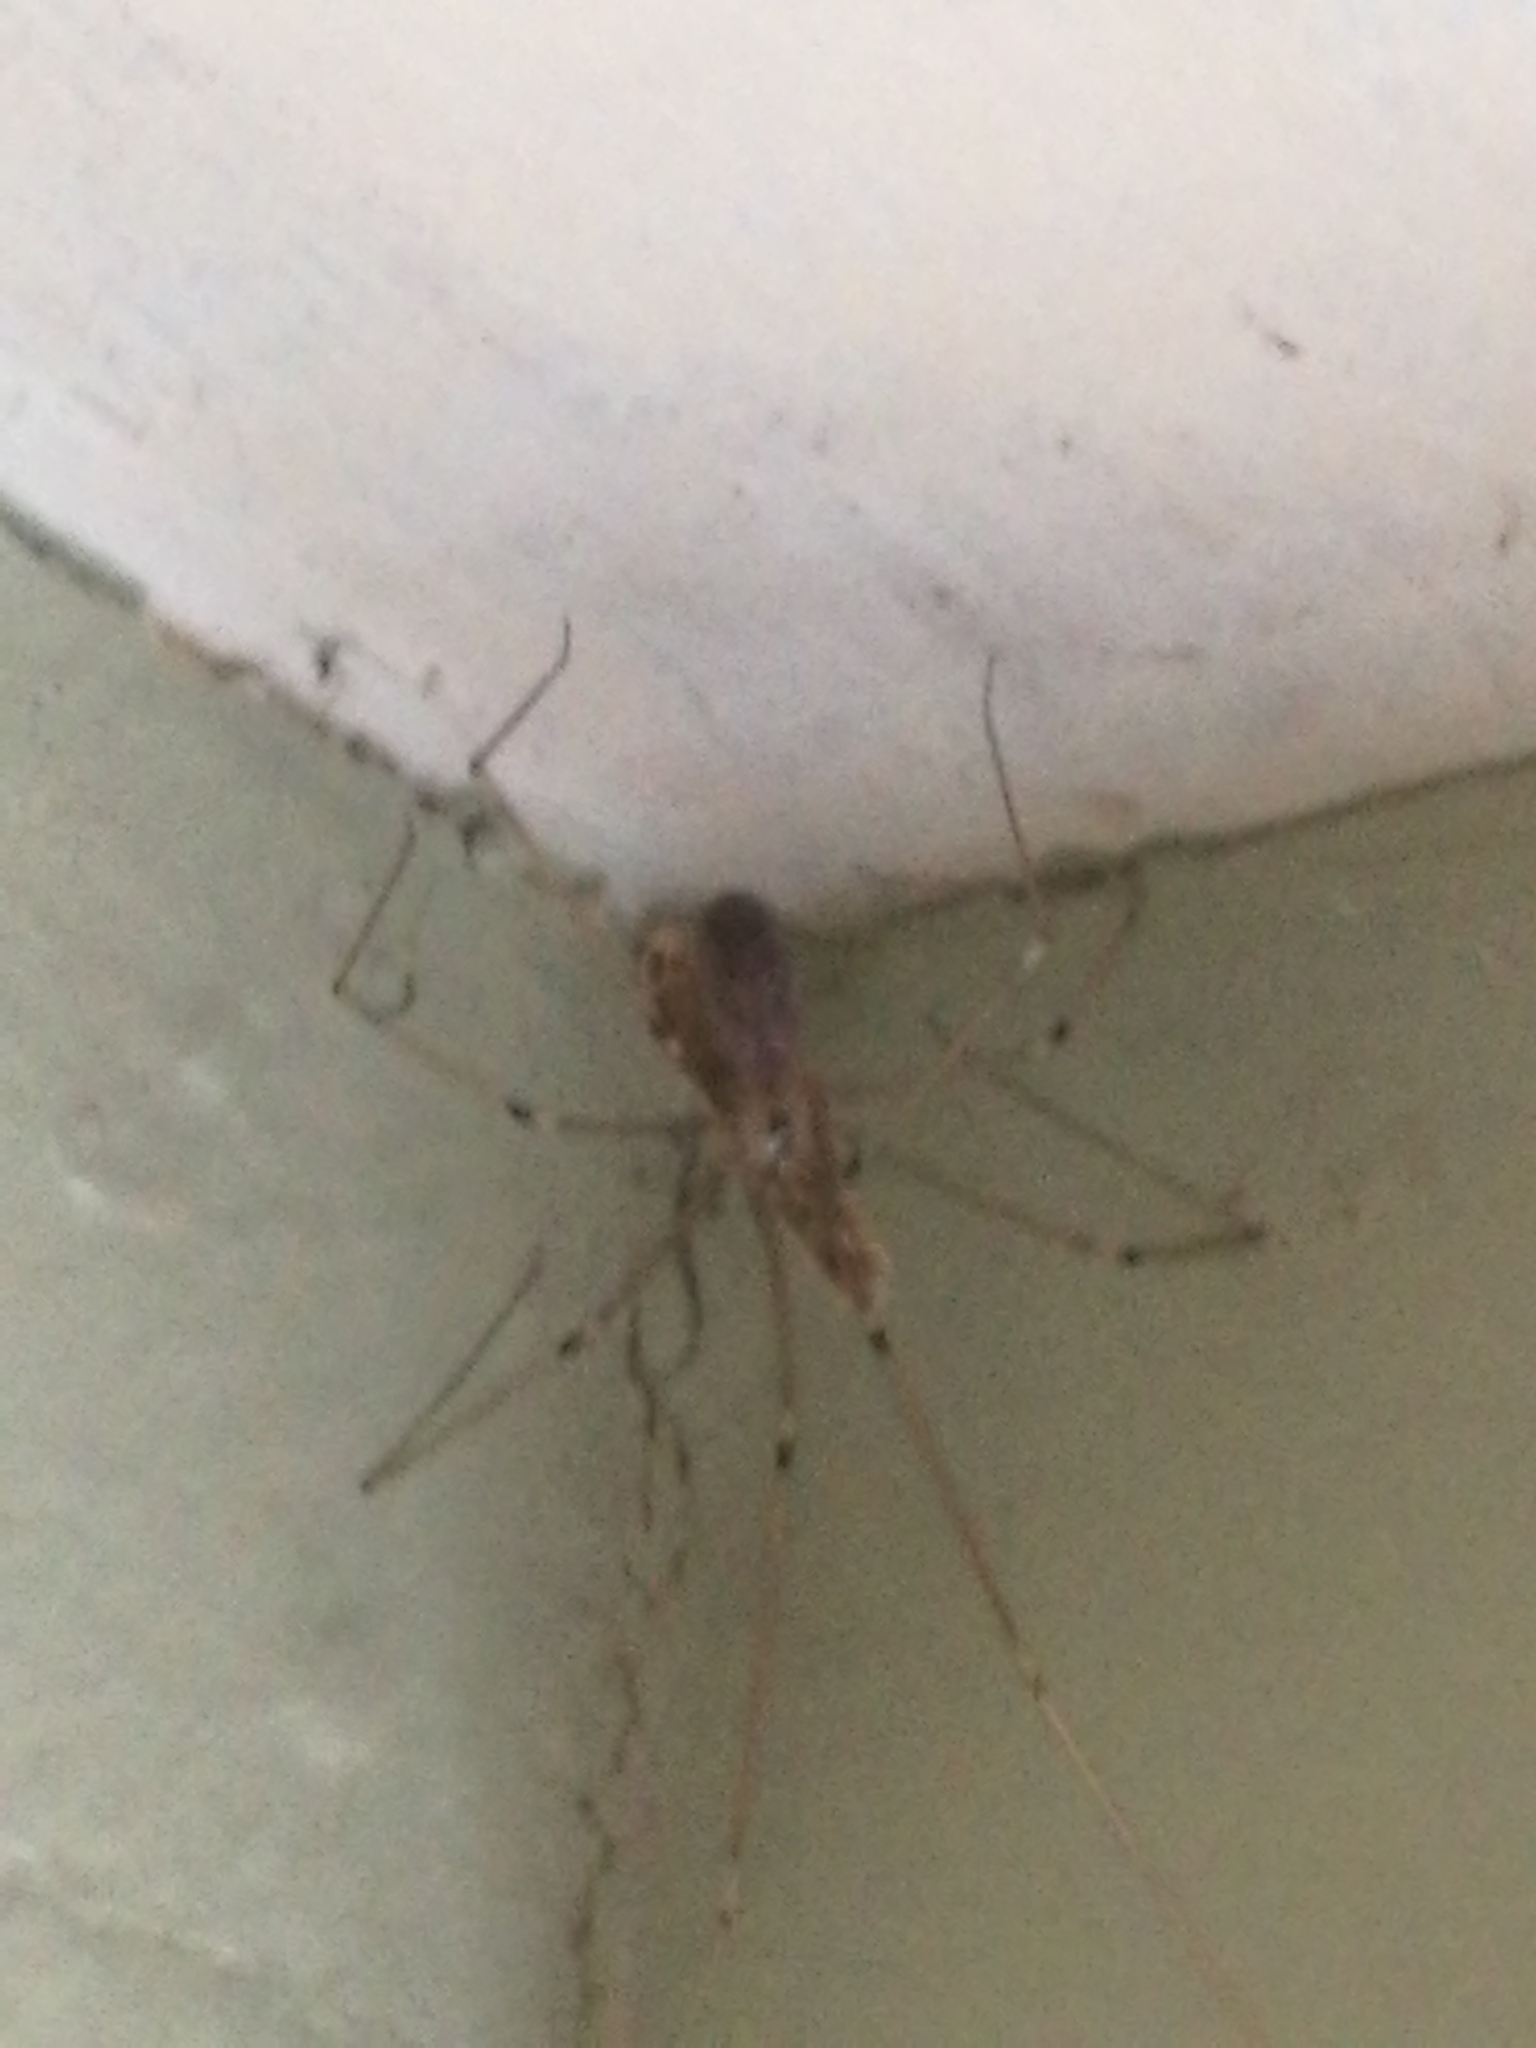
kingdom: Animalia
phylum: Arthropoda
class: Arachnida
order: Araneae
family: Pholcidae
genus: Pholcus
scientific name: Pholcus phalangioides
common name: Longbodied cellar spider
